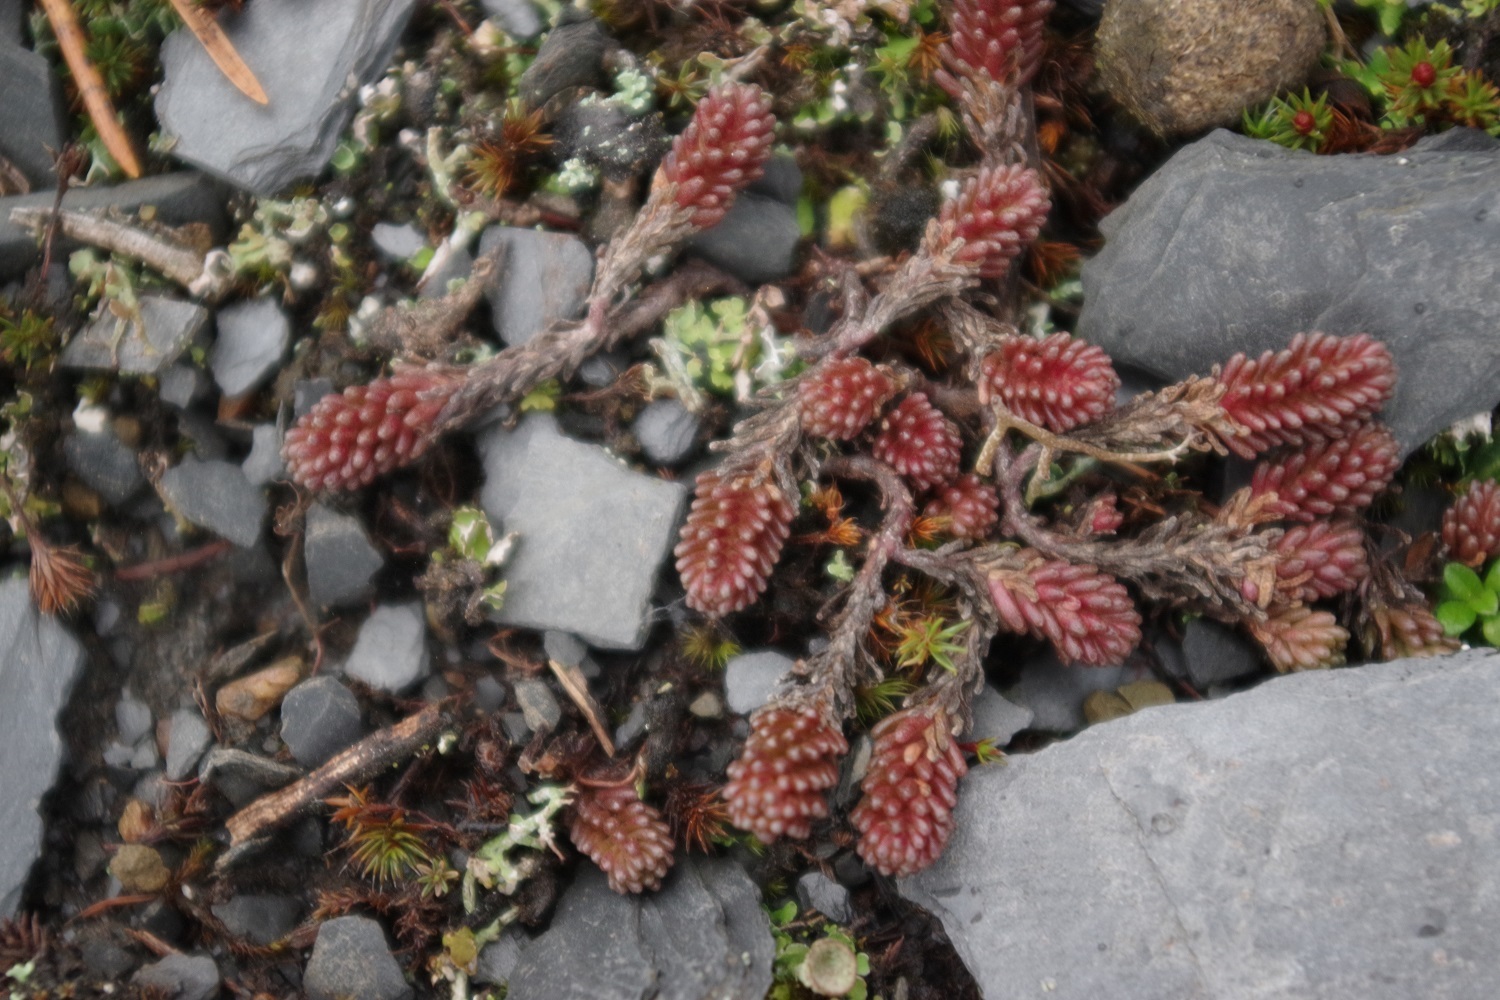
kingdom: Plantae
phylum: Tracheophyta
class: Magnoliopsida
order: Saxifragales
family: Crassulaceae
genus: Sedum
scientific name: Sedum sexangulare
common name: Tasteless stonecrop
